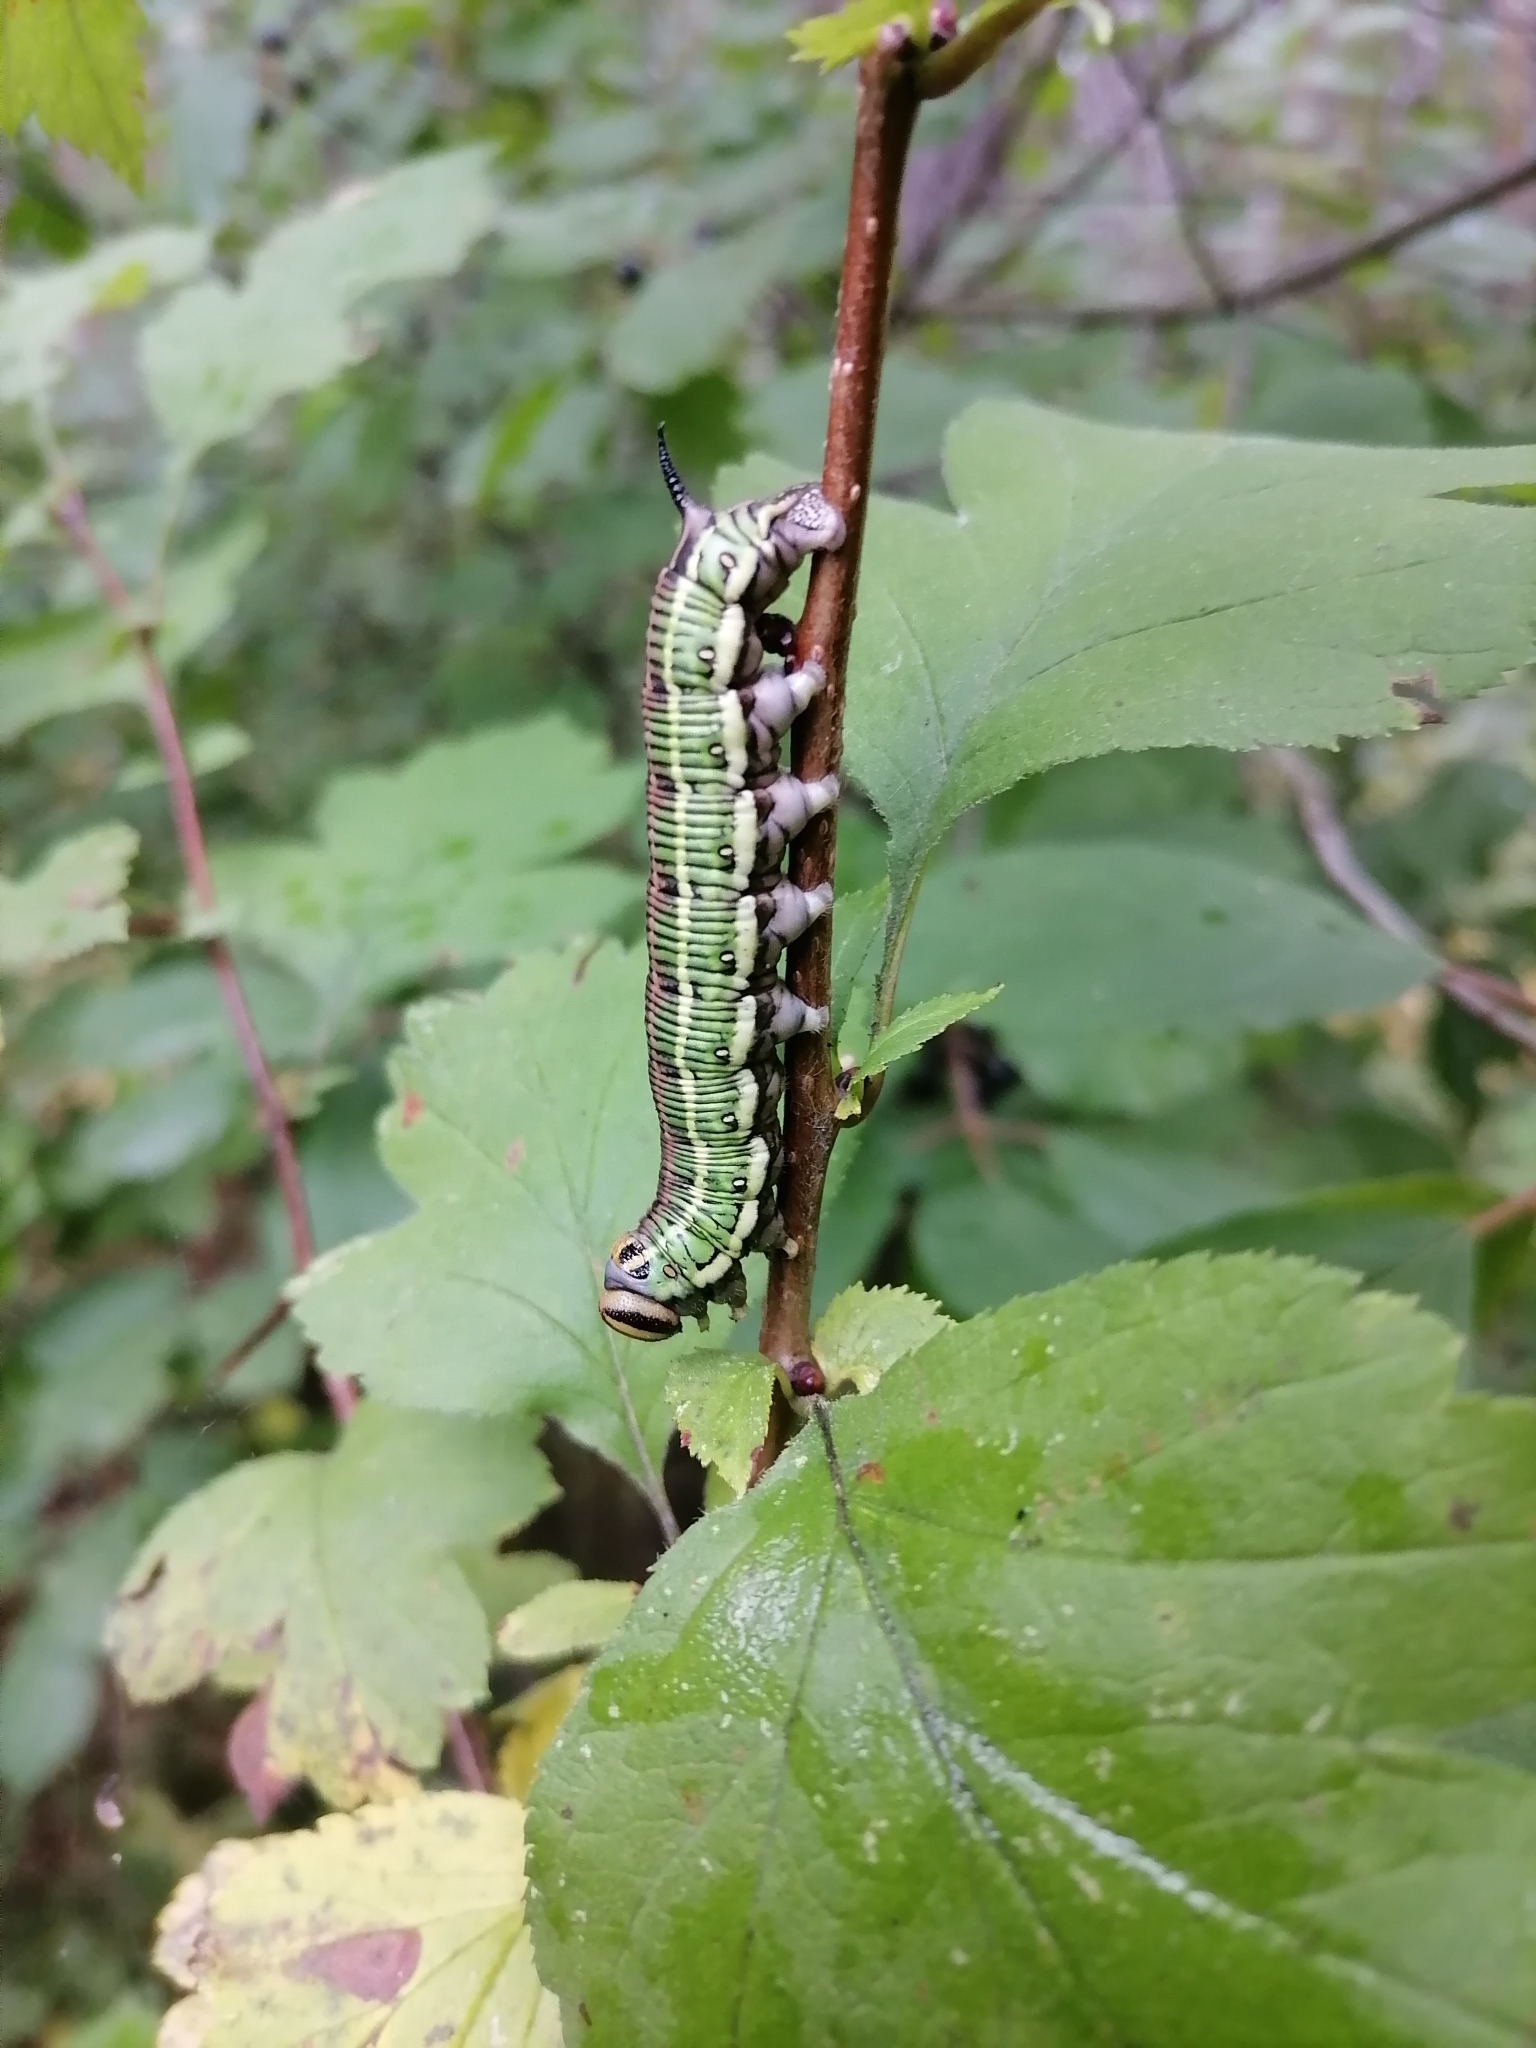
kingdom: Animalia
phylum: Arthropoda
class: Insecta
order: Lepidoptera
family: Sphingidae
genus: Sphinx
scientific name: Sphinx morio
